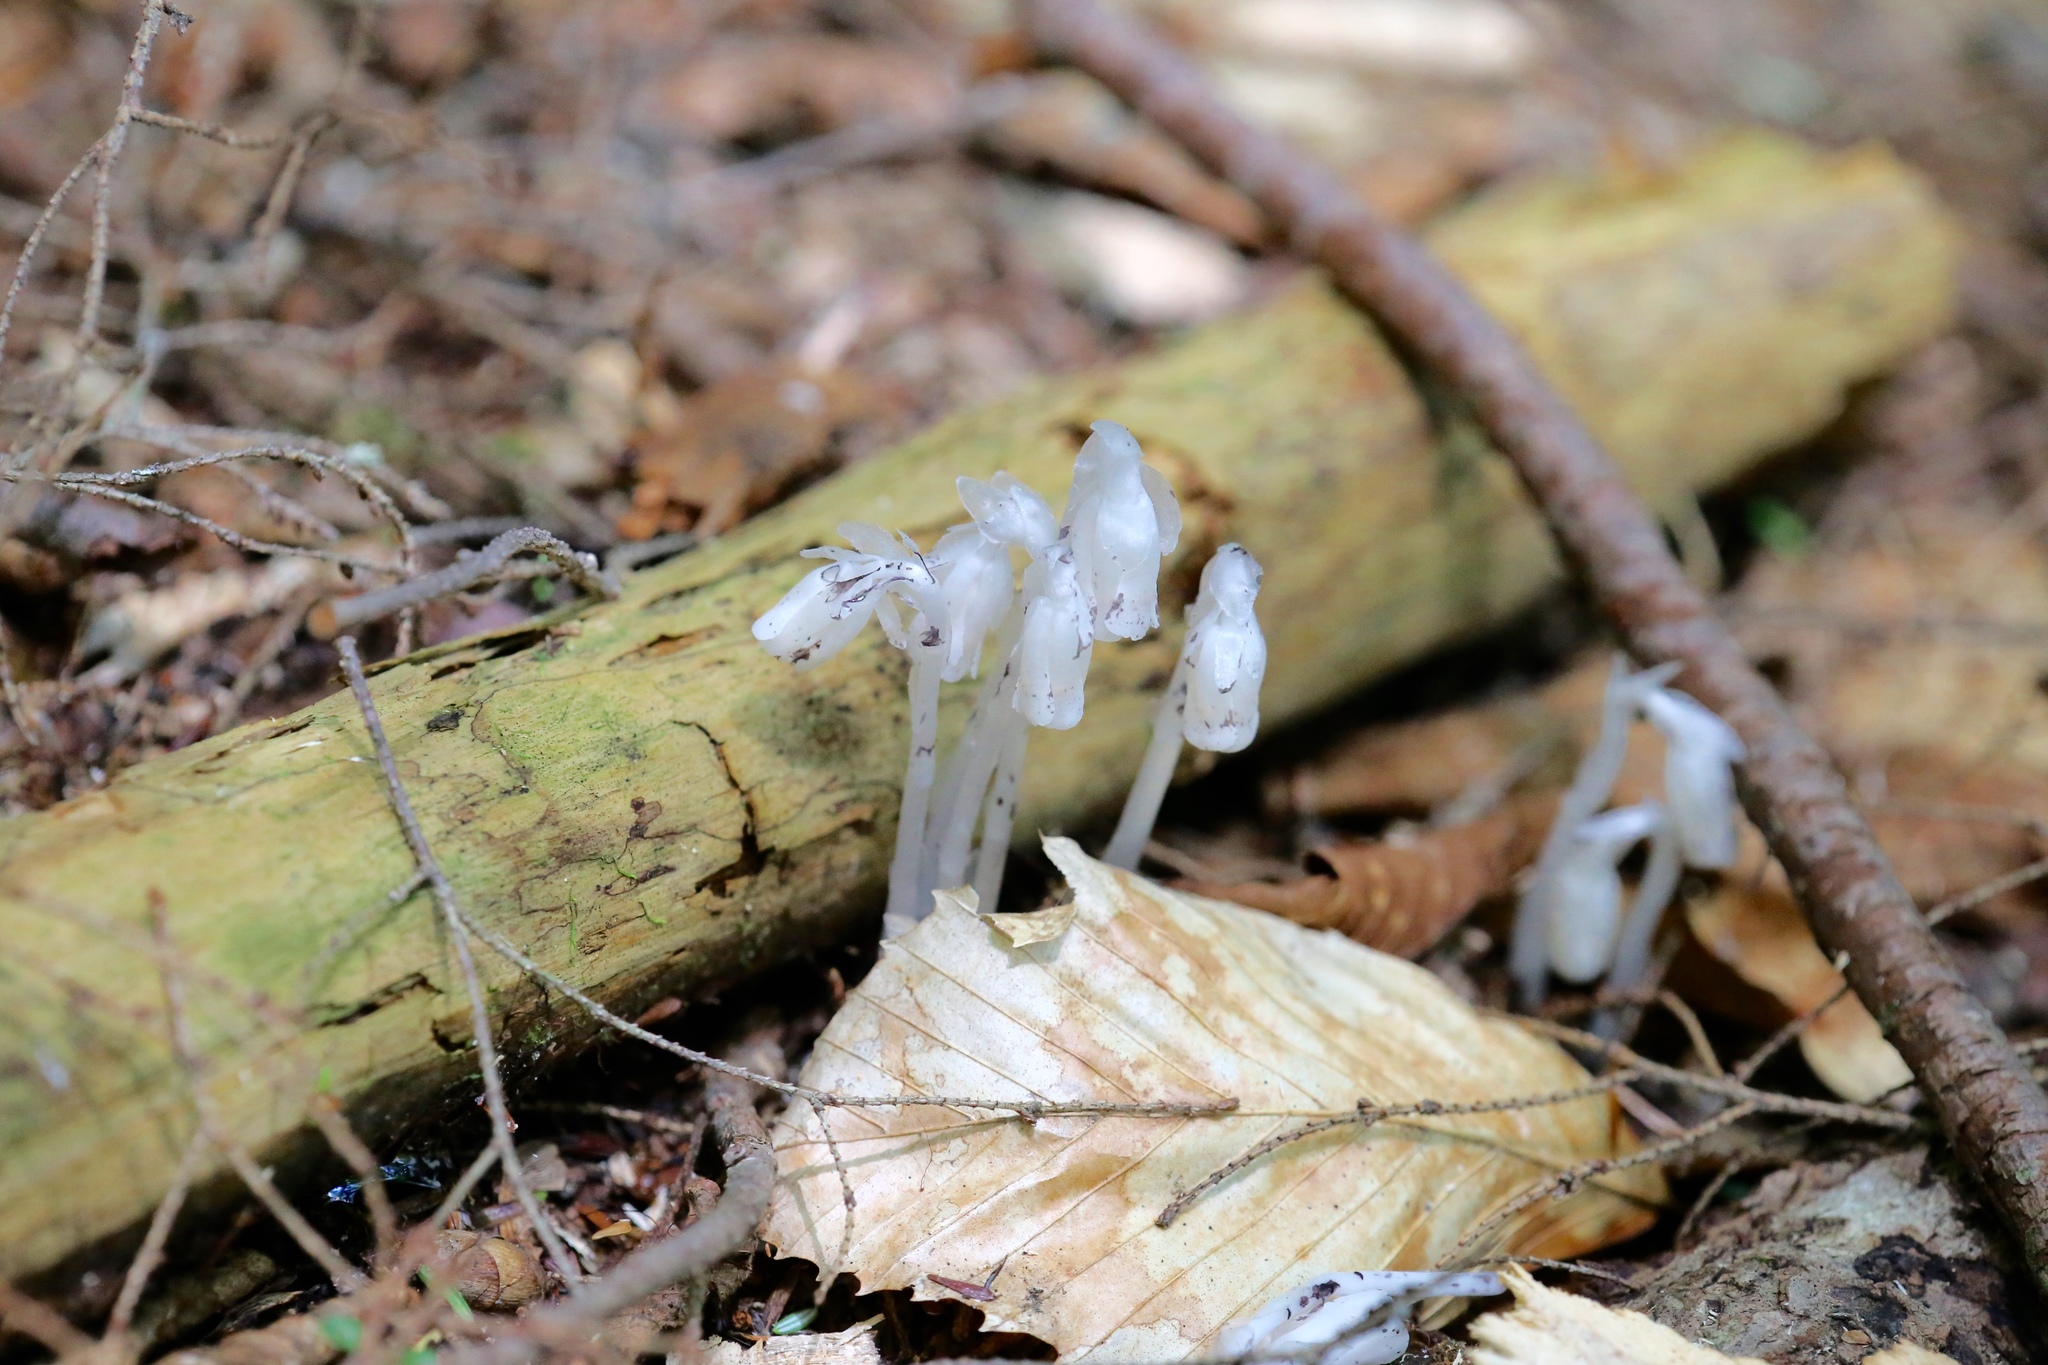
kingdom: Plantae
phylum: Tracheophyta
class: Magnoliopsida
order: Ericales
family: Ericaceae
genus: Monotropa
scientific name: Monotropa uniflora
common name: Convulsion root
